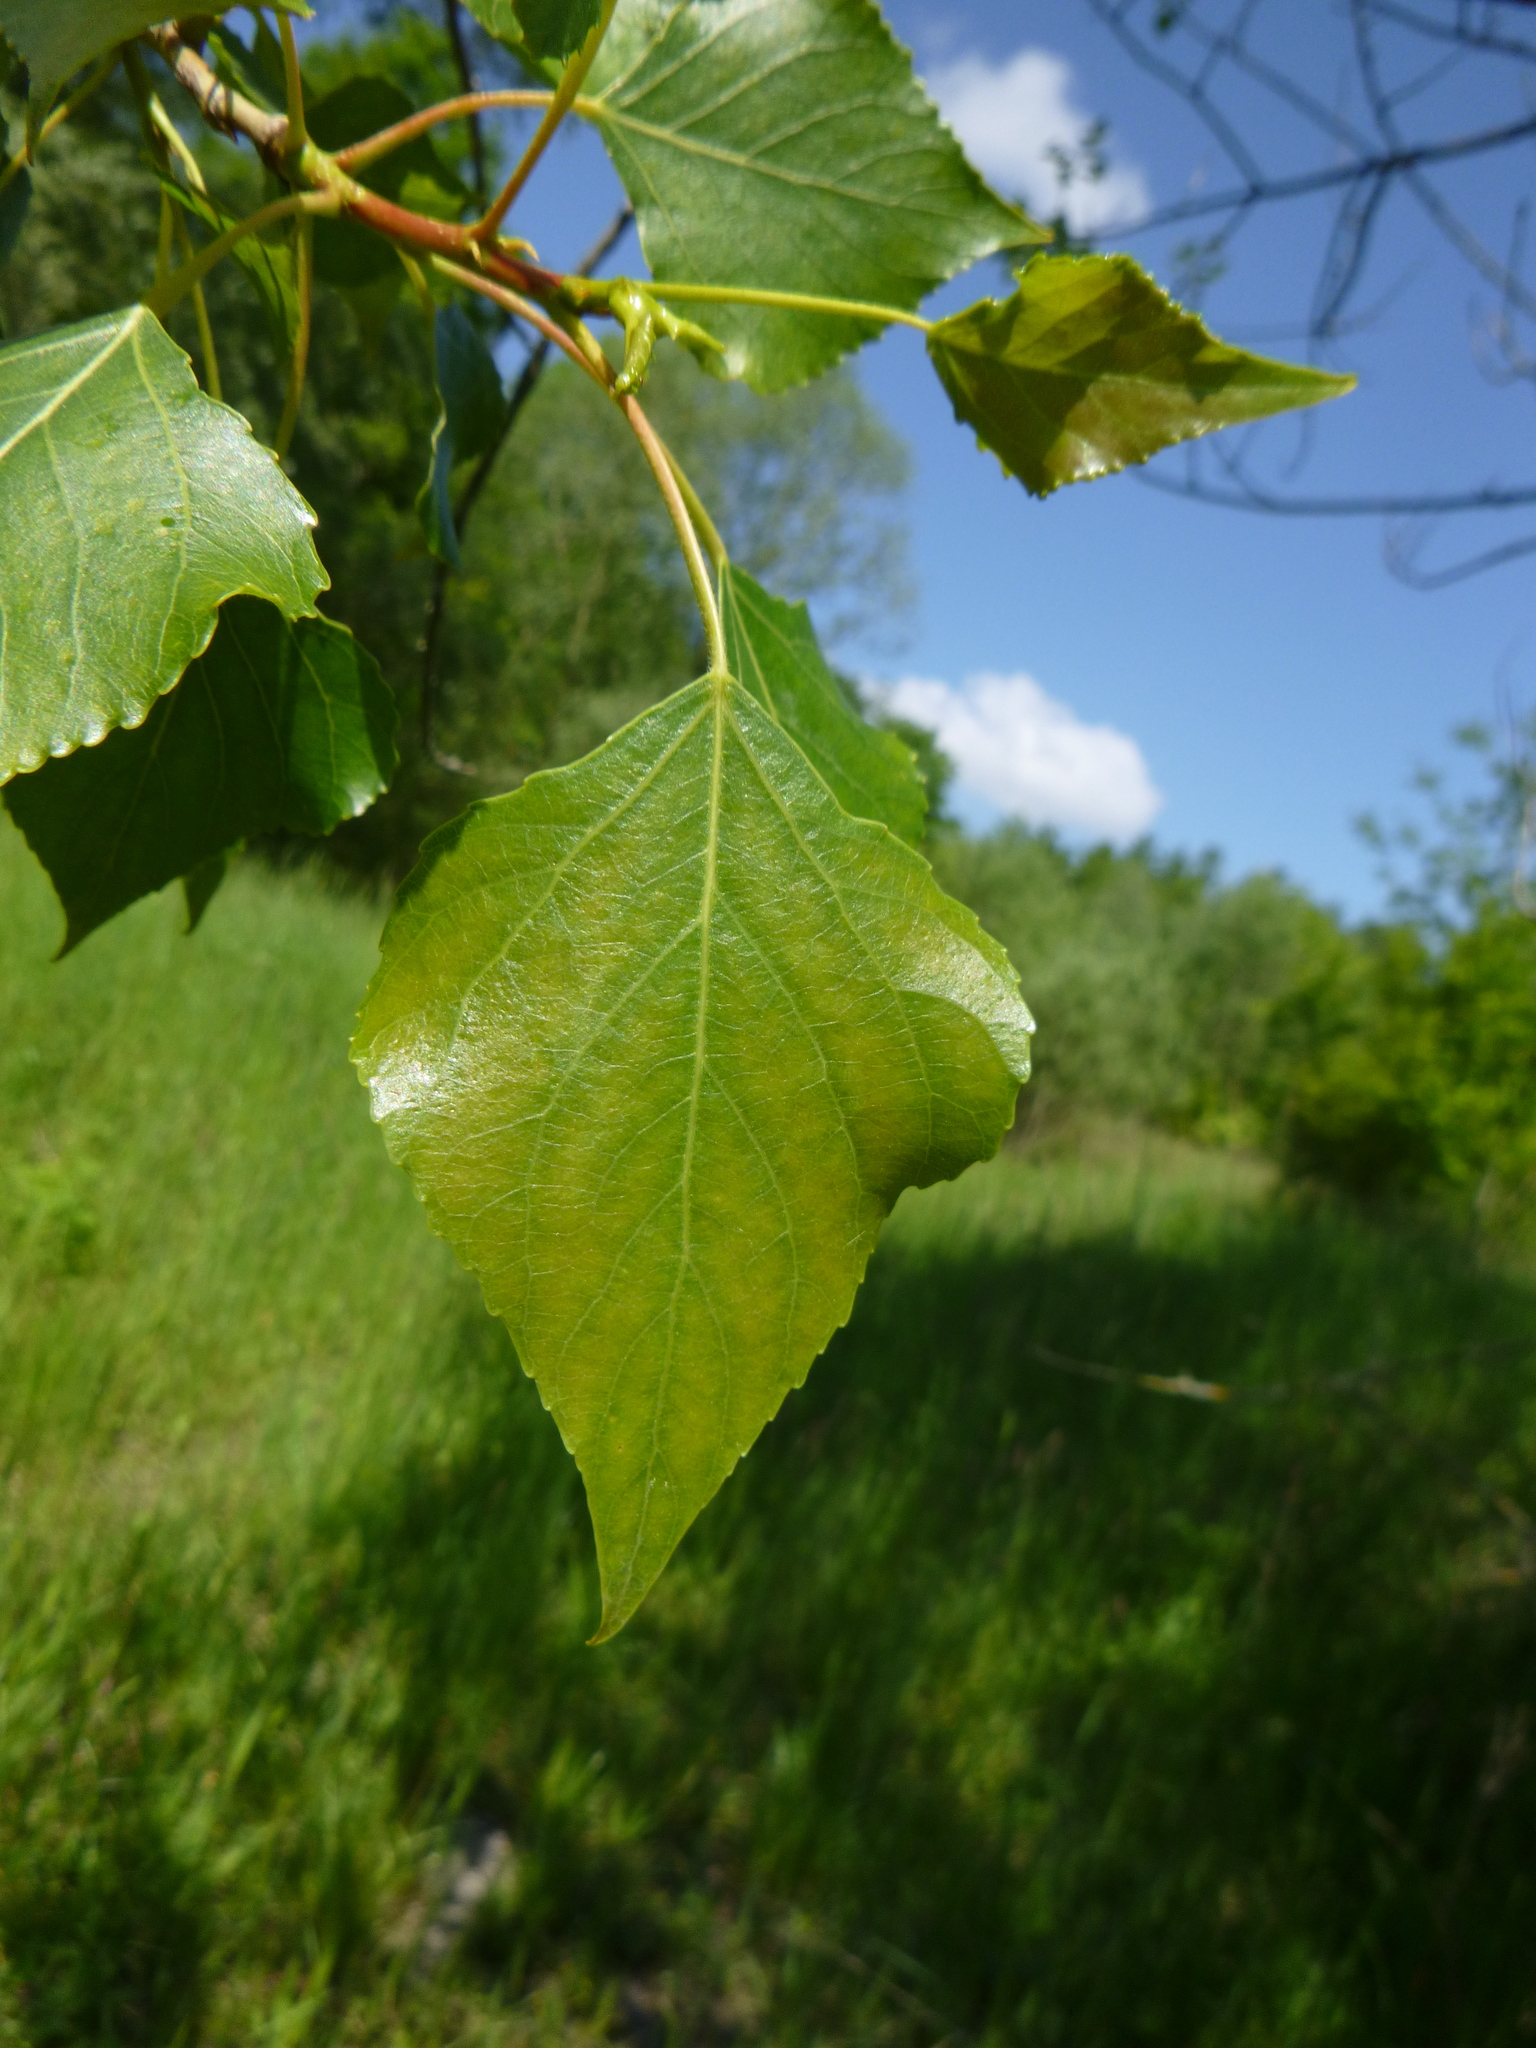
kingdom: Plantae
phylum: Tracheophyta
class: Magnoliopsida
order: Malpighiales
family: Salicaceae
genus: Populus
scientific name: Populus nigra
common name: Black poplar
